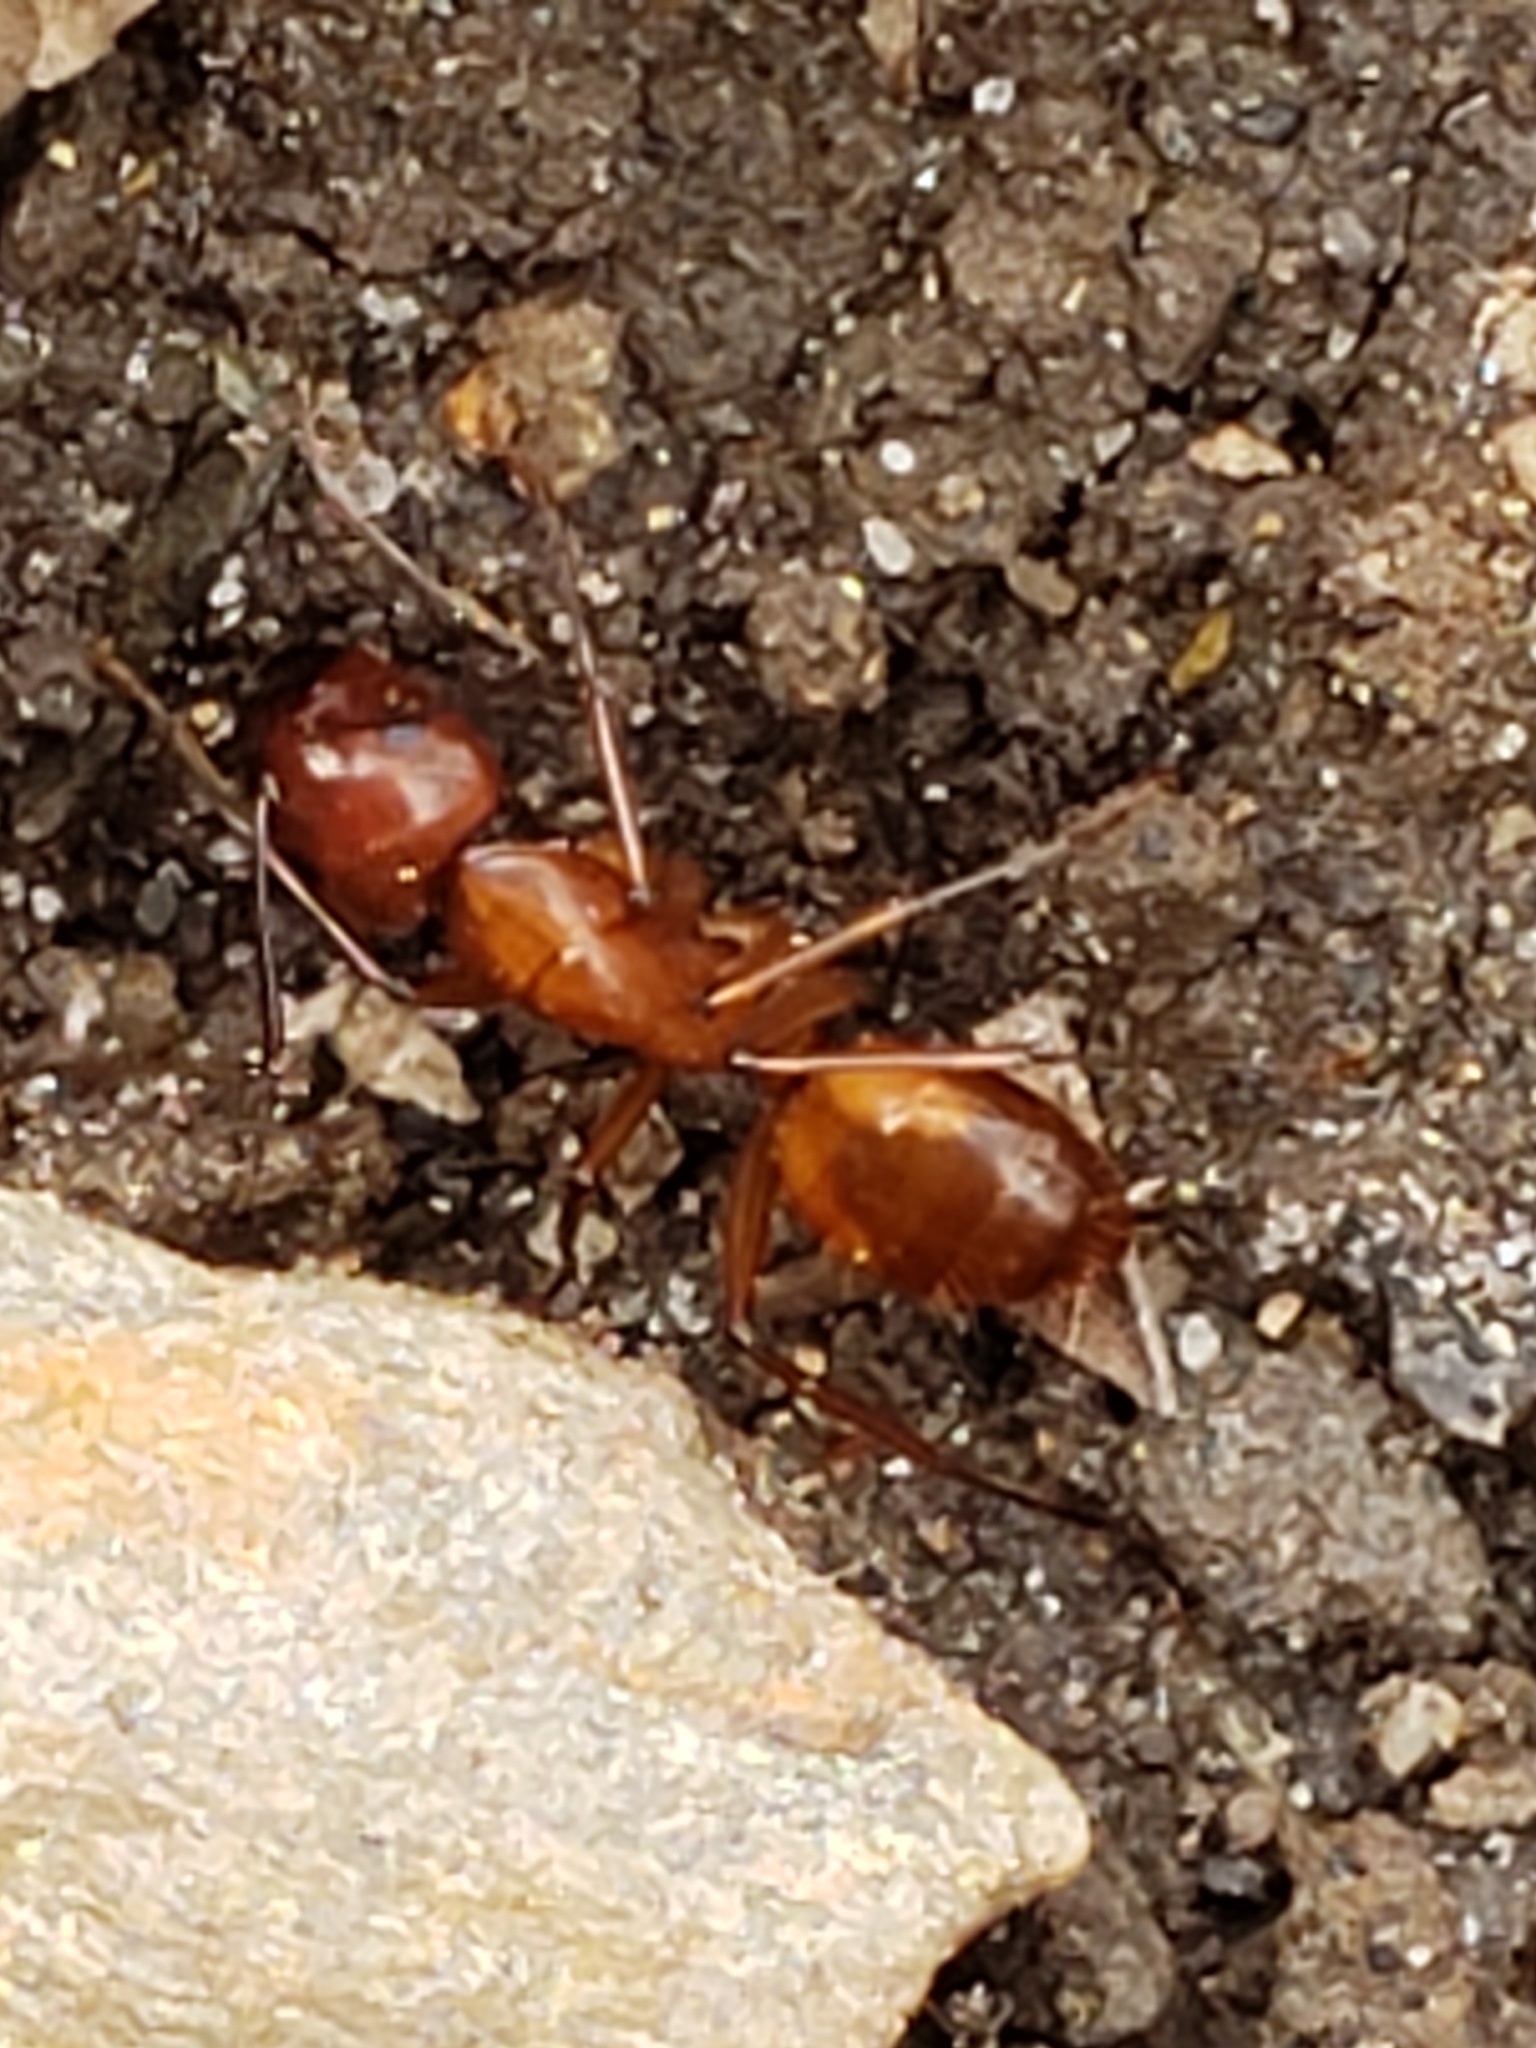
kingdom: Animalia
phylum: Arthropoda
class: Insecta
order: Hymenoptera
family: Formicidae
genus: Camponotus
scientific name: Camponotus castaneus
